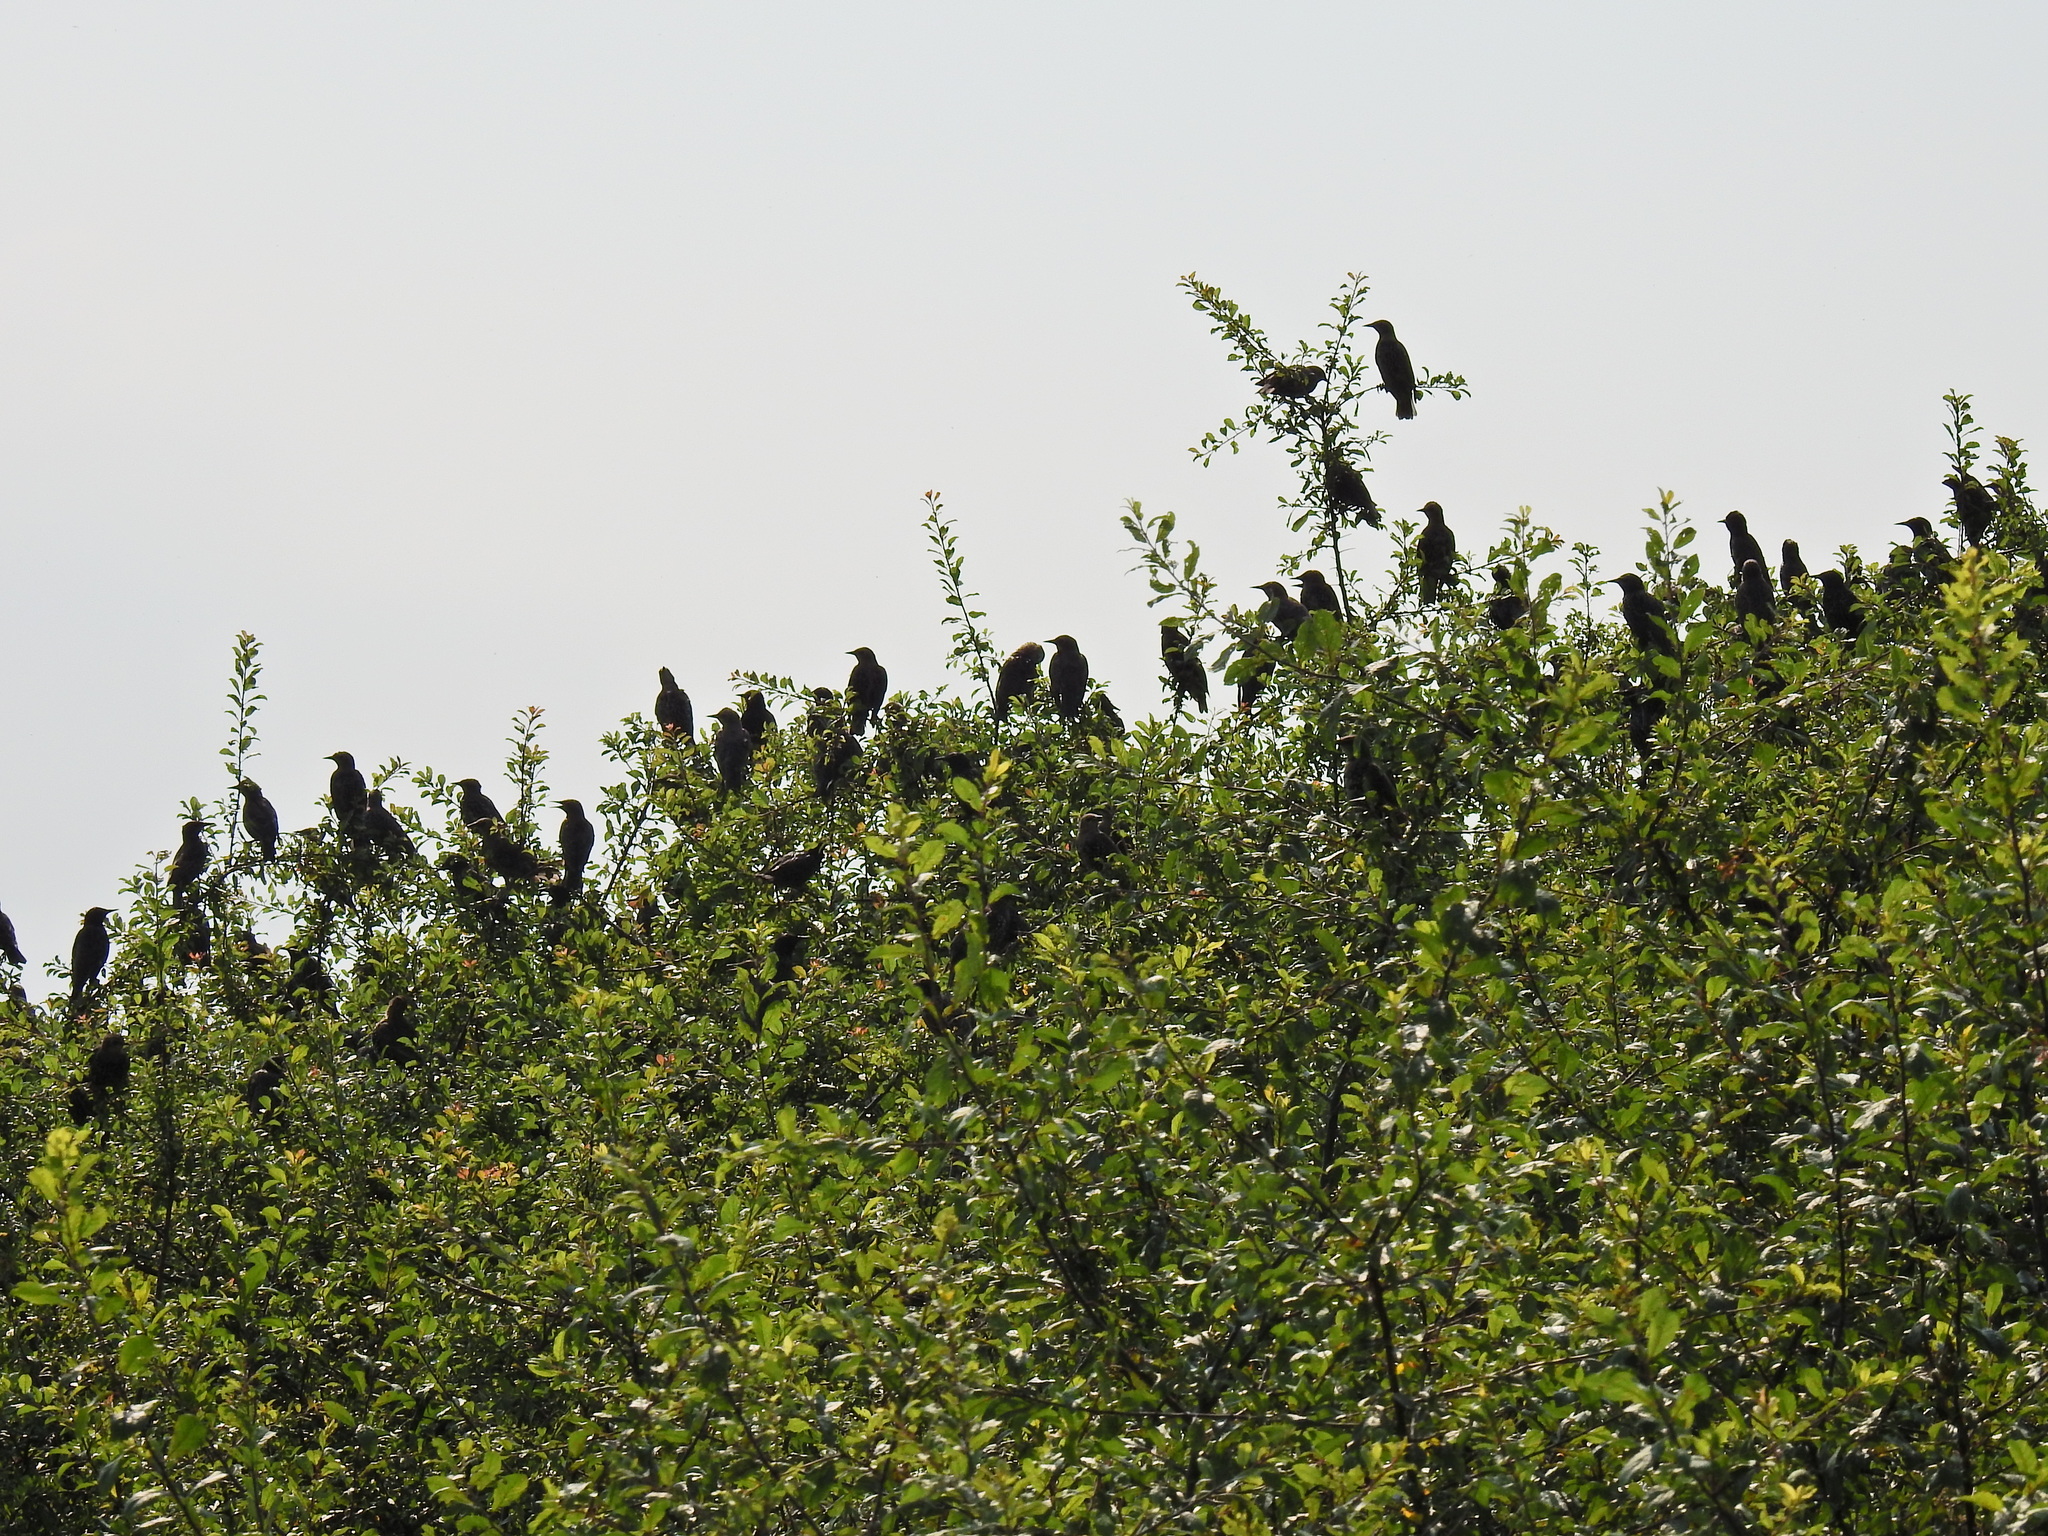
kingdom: Animalia
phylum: Chordata
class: Aves
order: Passeriformes
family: Sturnidae
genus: Sturnus
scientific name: Sturnus vulgaris
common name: Common starling
